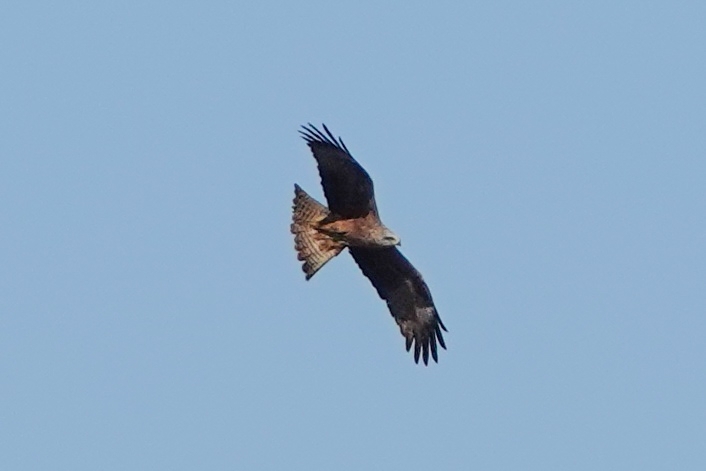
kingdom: Animalia
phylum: Chordata
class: Aves
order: Accipitriformes
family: Accipitridae
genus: Milvus
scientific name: Milvus migrans
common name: Black kite
